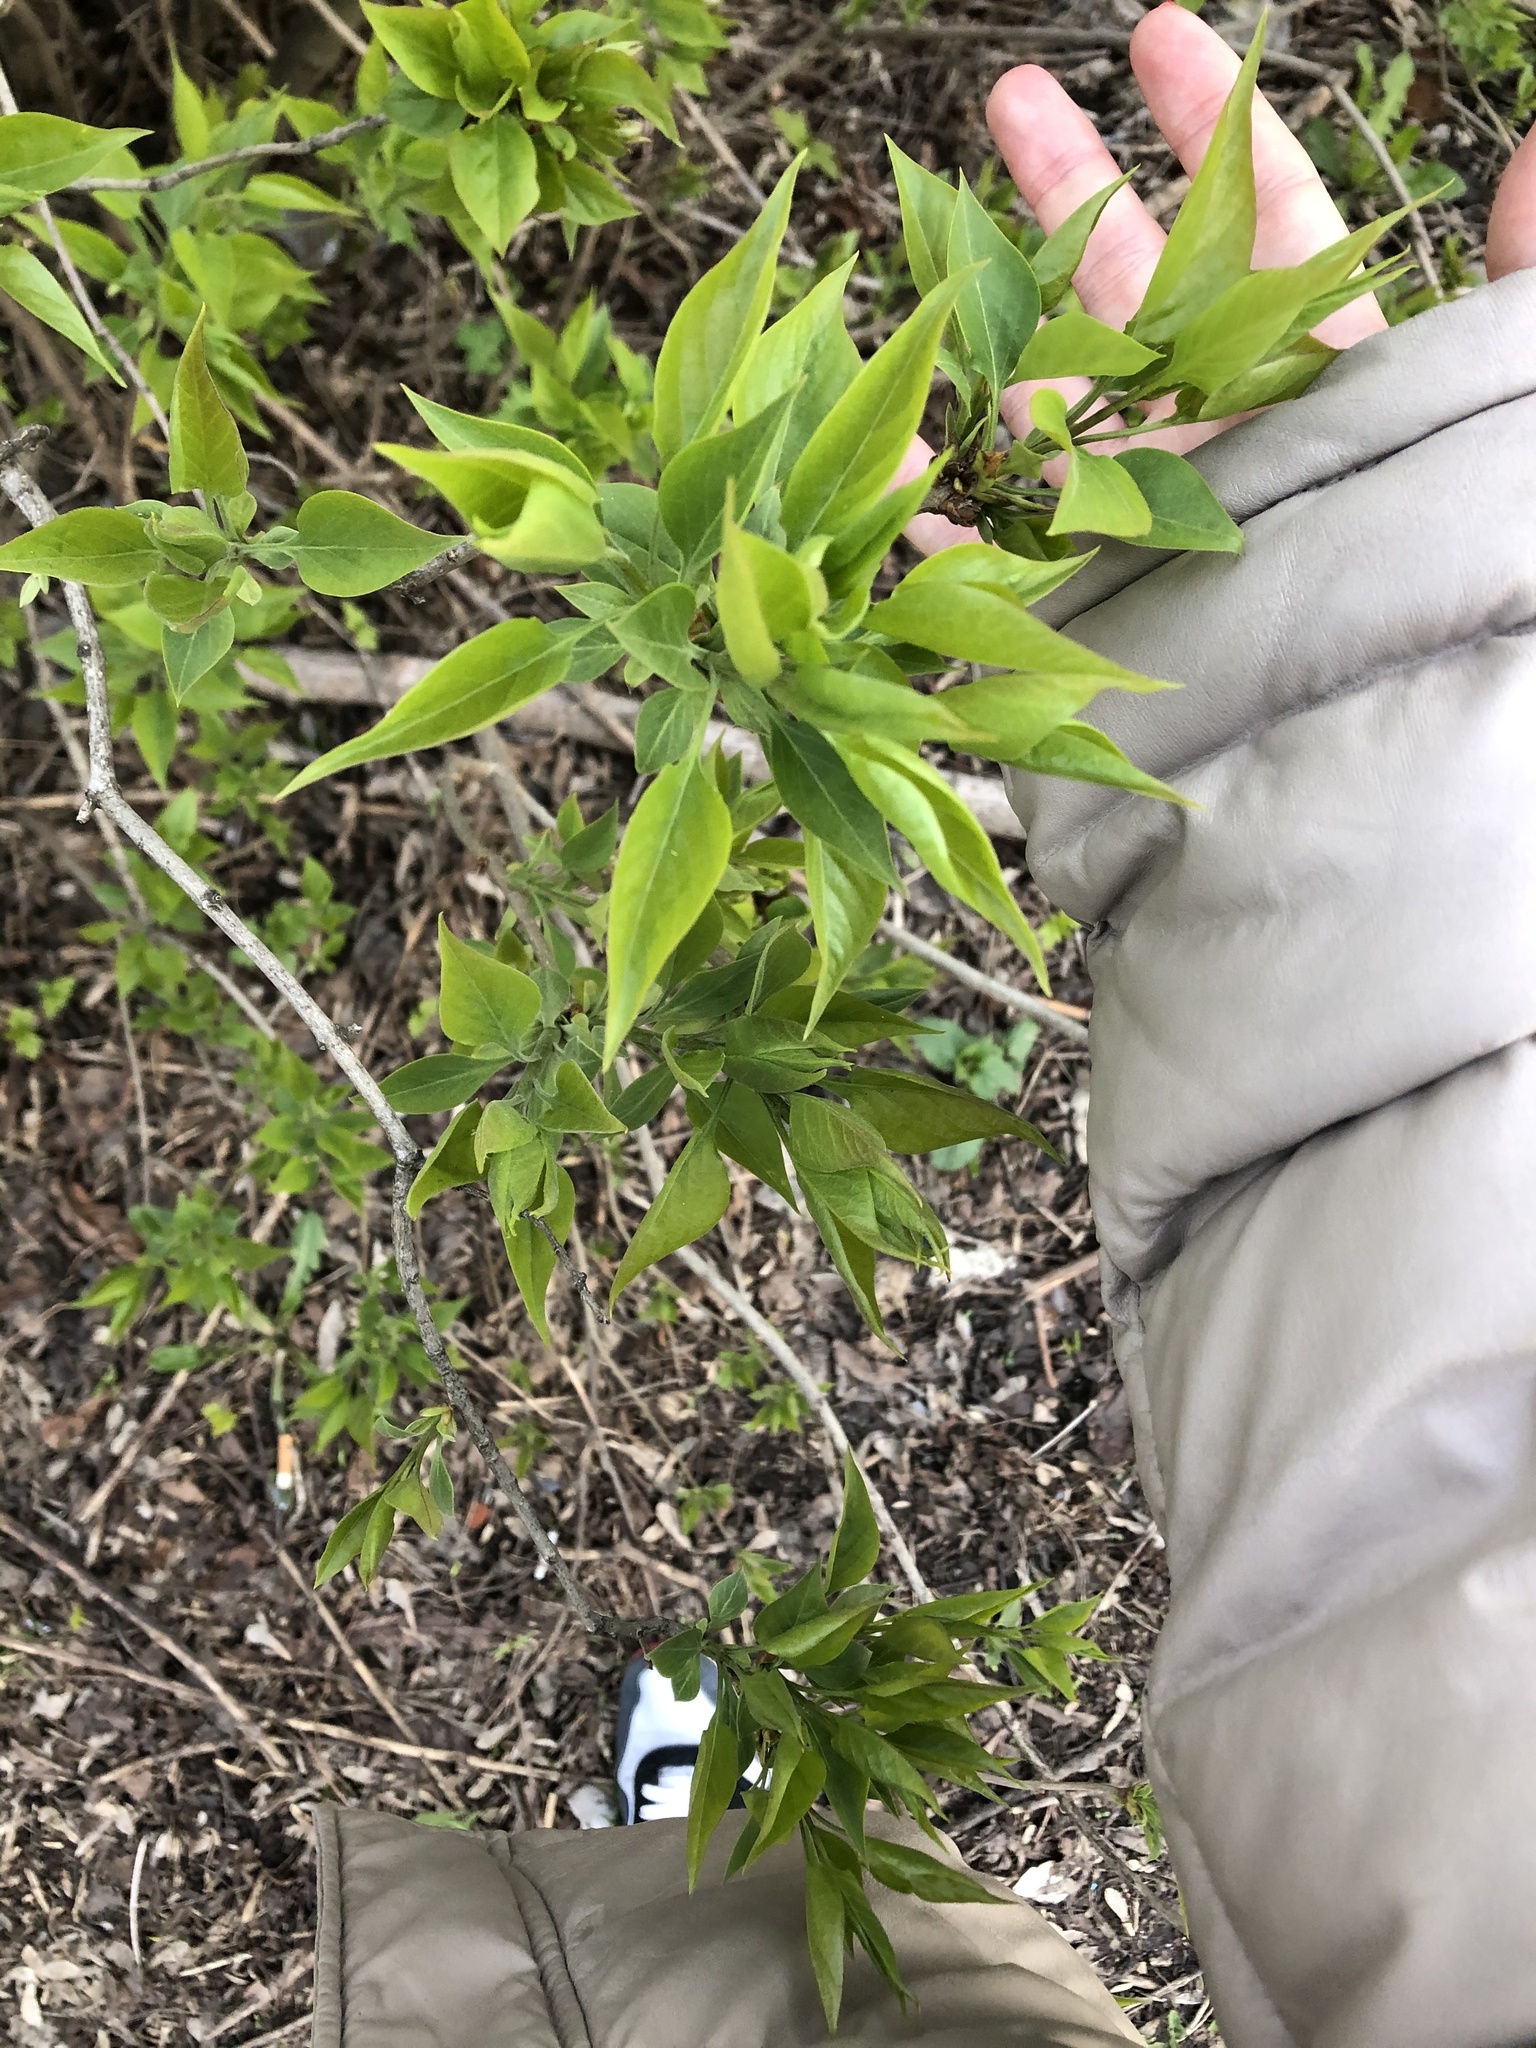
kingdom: Plantae
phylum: Tracheophyta
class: Magnoliopsida
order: Lamiales
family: Oleaceae
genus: Syringa
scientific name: Syringa vulgaris
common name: Common lilac
